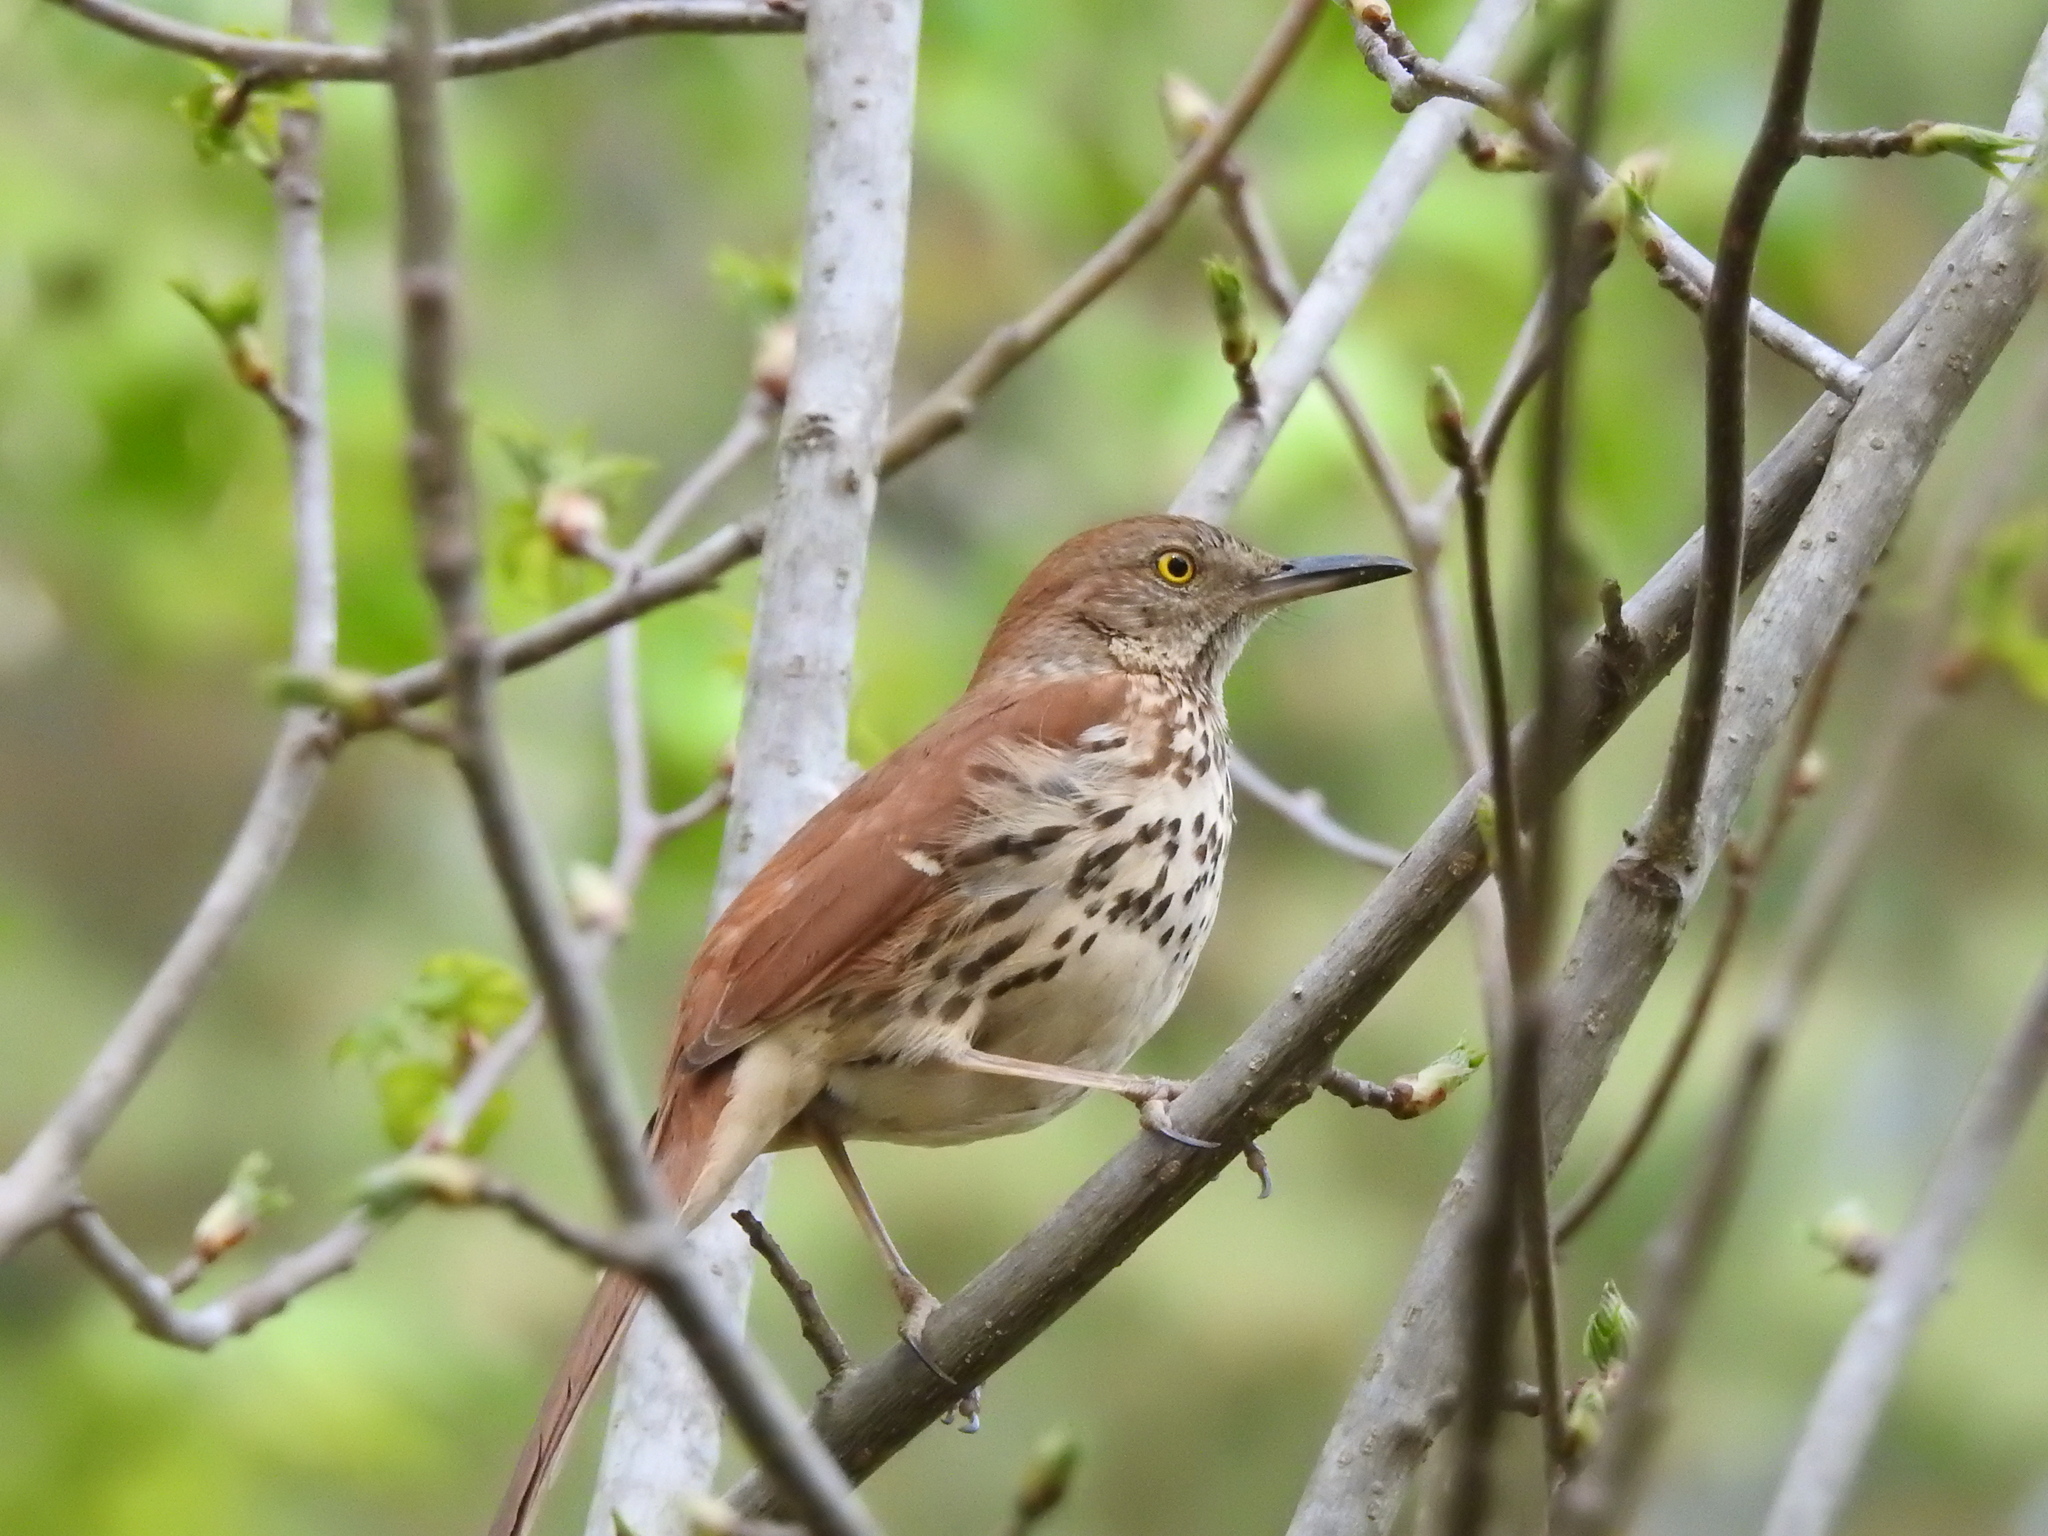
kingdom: Animalia
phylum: Chordata
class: Aves
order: Passeriformes
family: Mimidae
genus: Toxostoma
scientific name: Toxostoma rufum
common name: Brown thrasher
